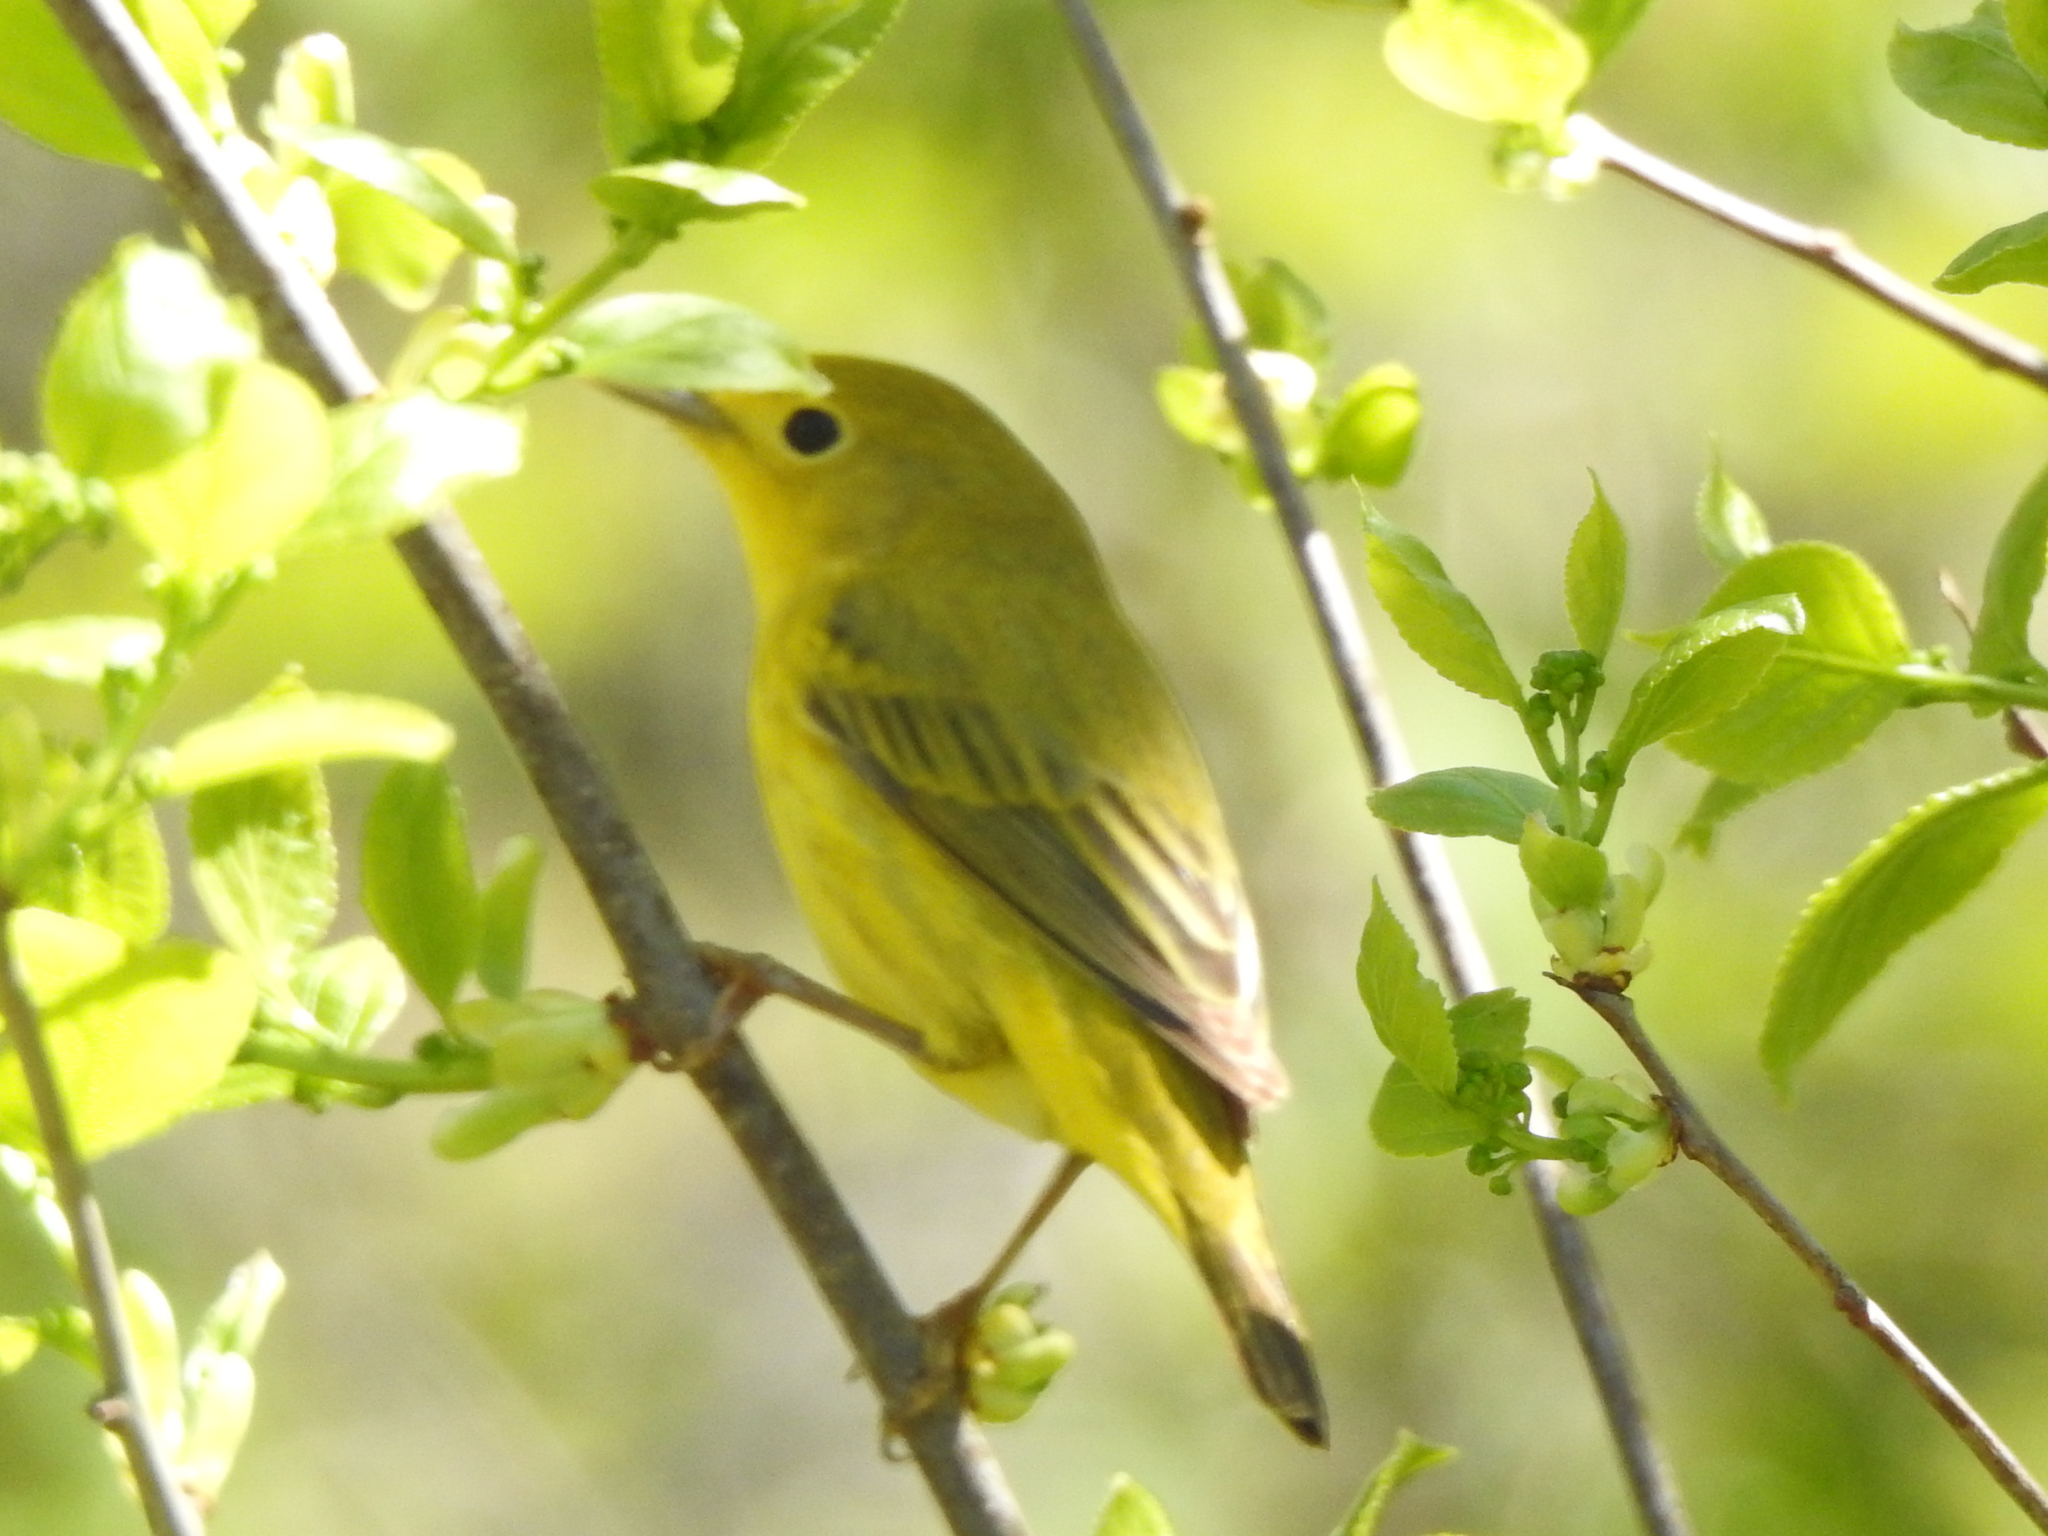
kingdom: Animalia
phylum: Chordata
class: Aves
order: Passeriformes
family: Parulidae
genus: Setophaga
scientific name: Setophaga petechia
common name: Yellow warbler
